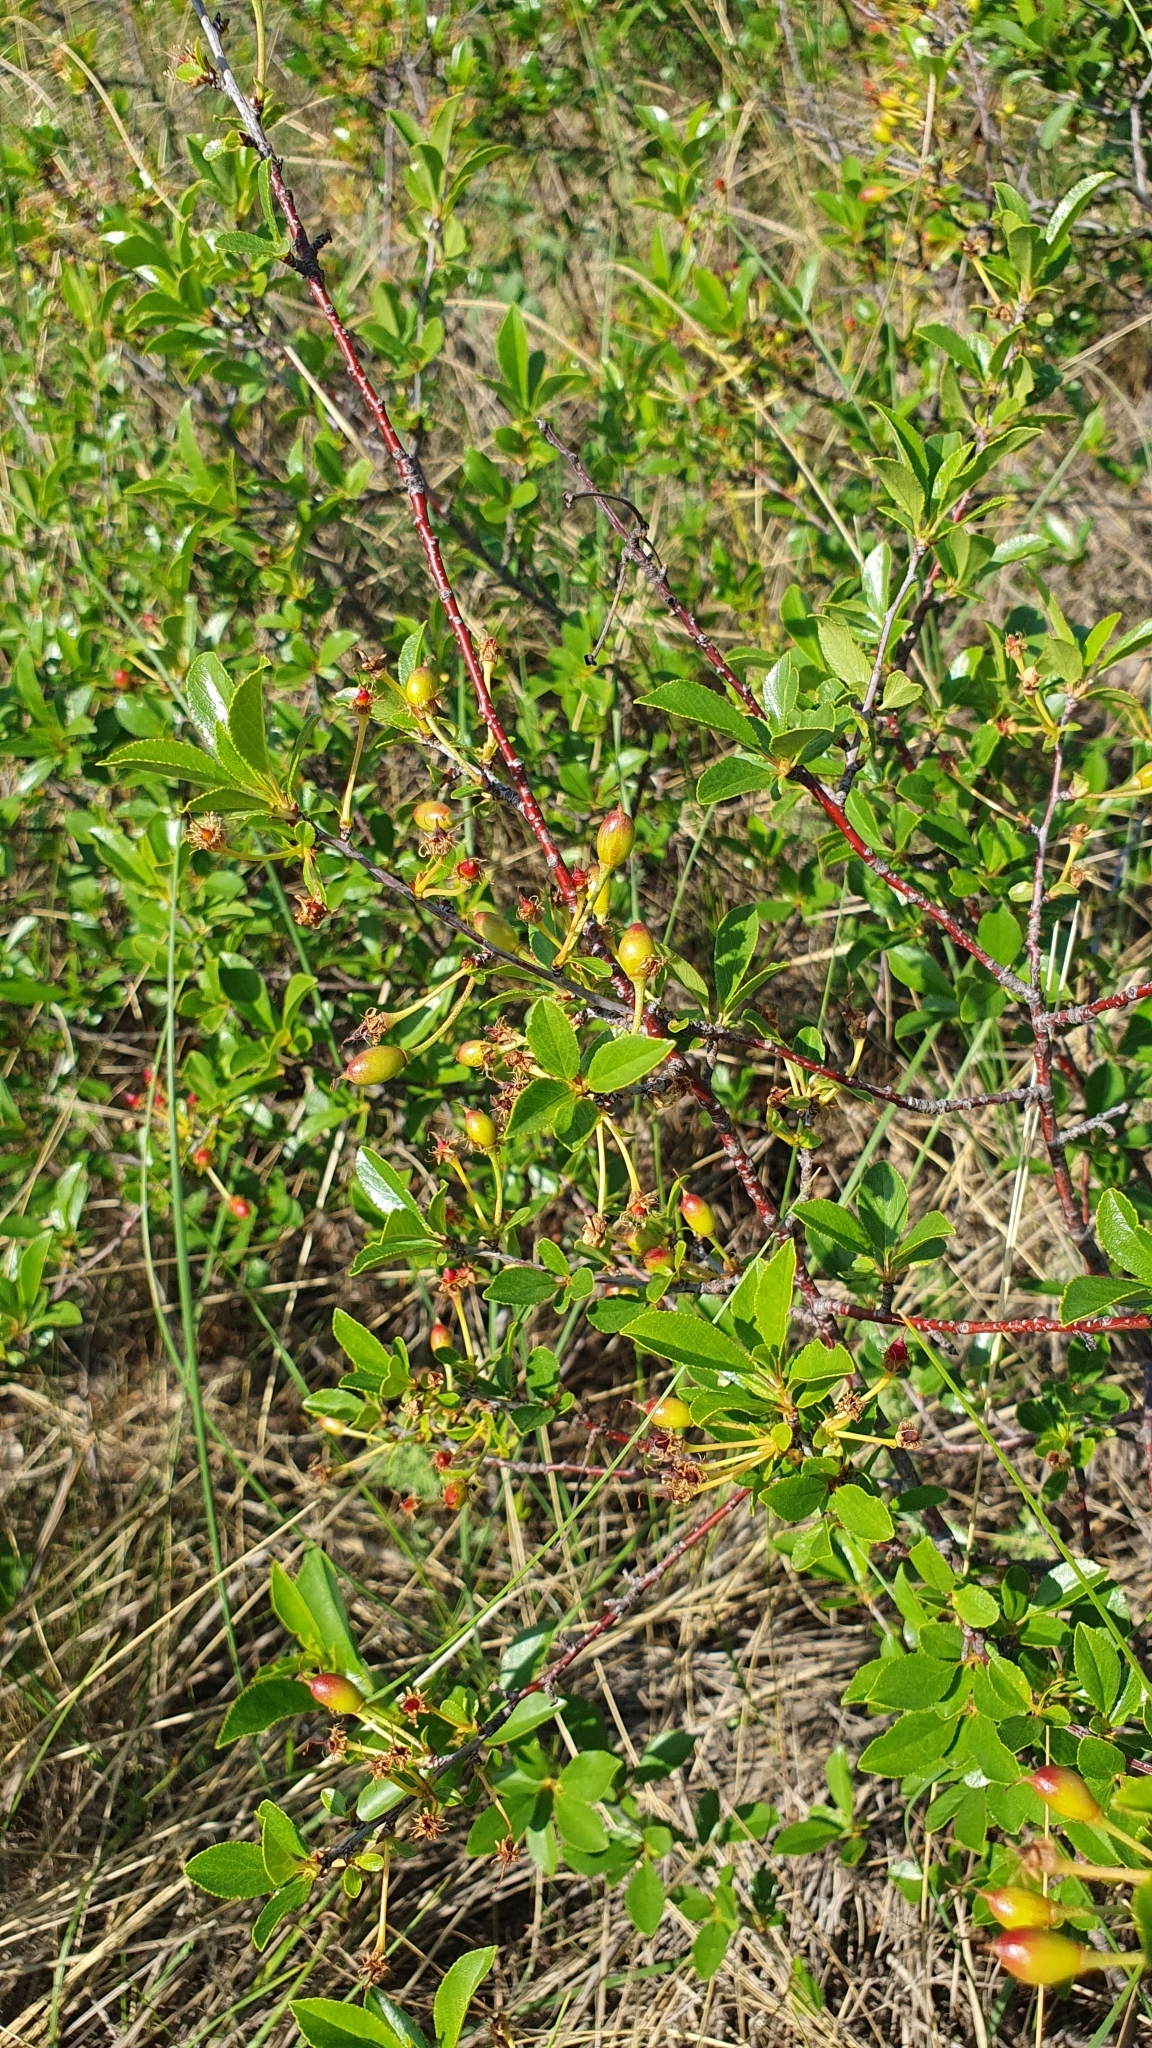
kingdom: Plantae
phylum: Tracheophyta
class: Magnoliopsida
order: Rosales
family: Rosaceae
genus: Prunus
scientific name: Prunus fruticosa
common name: European dwarf cherry
